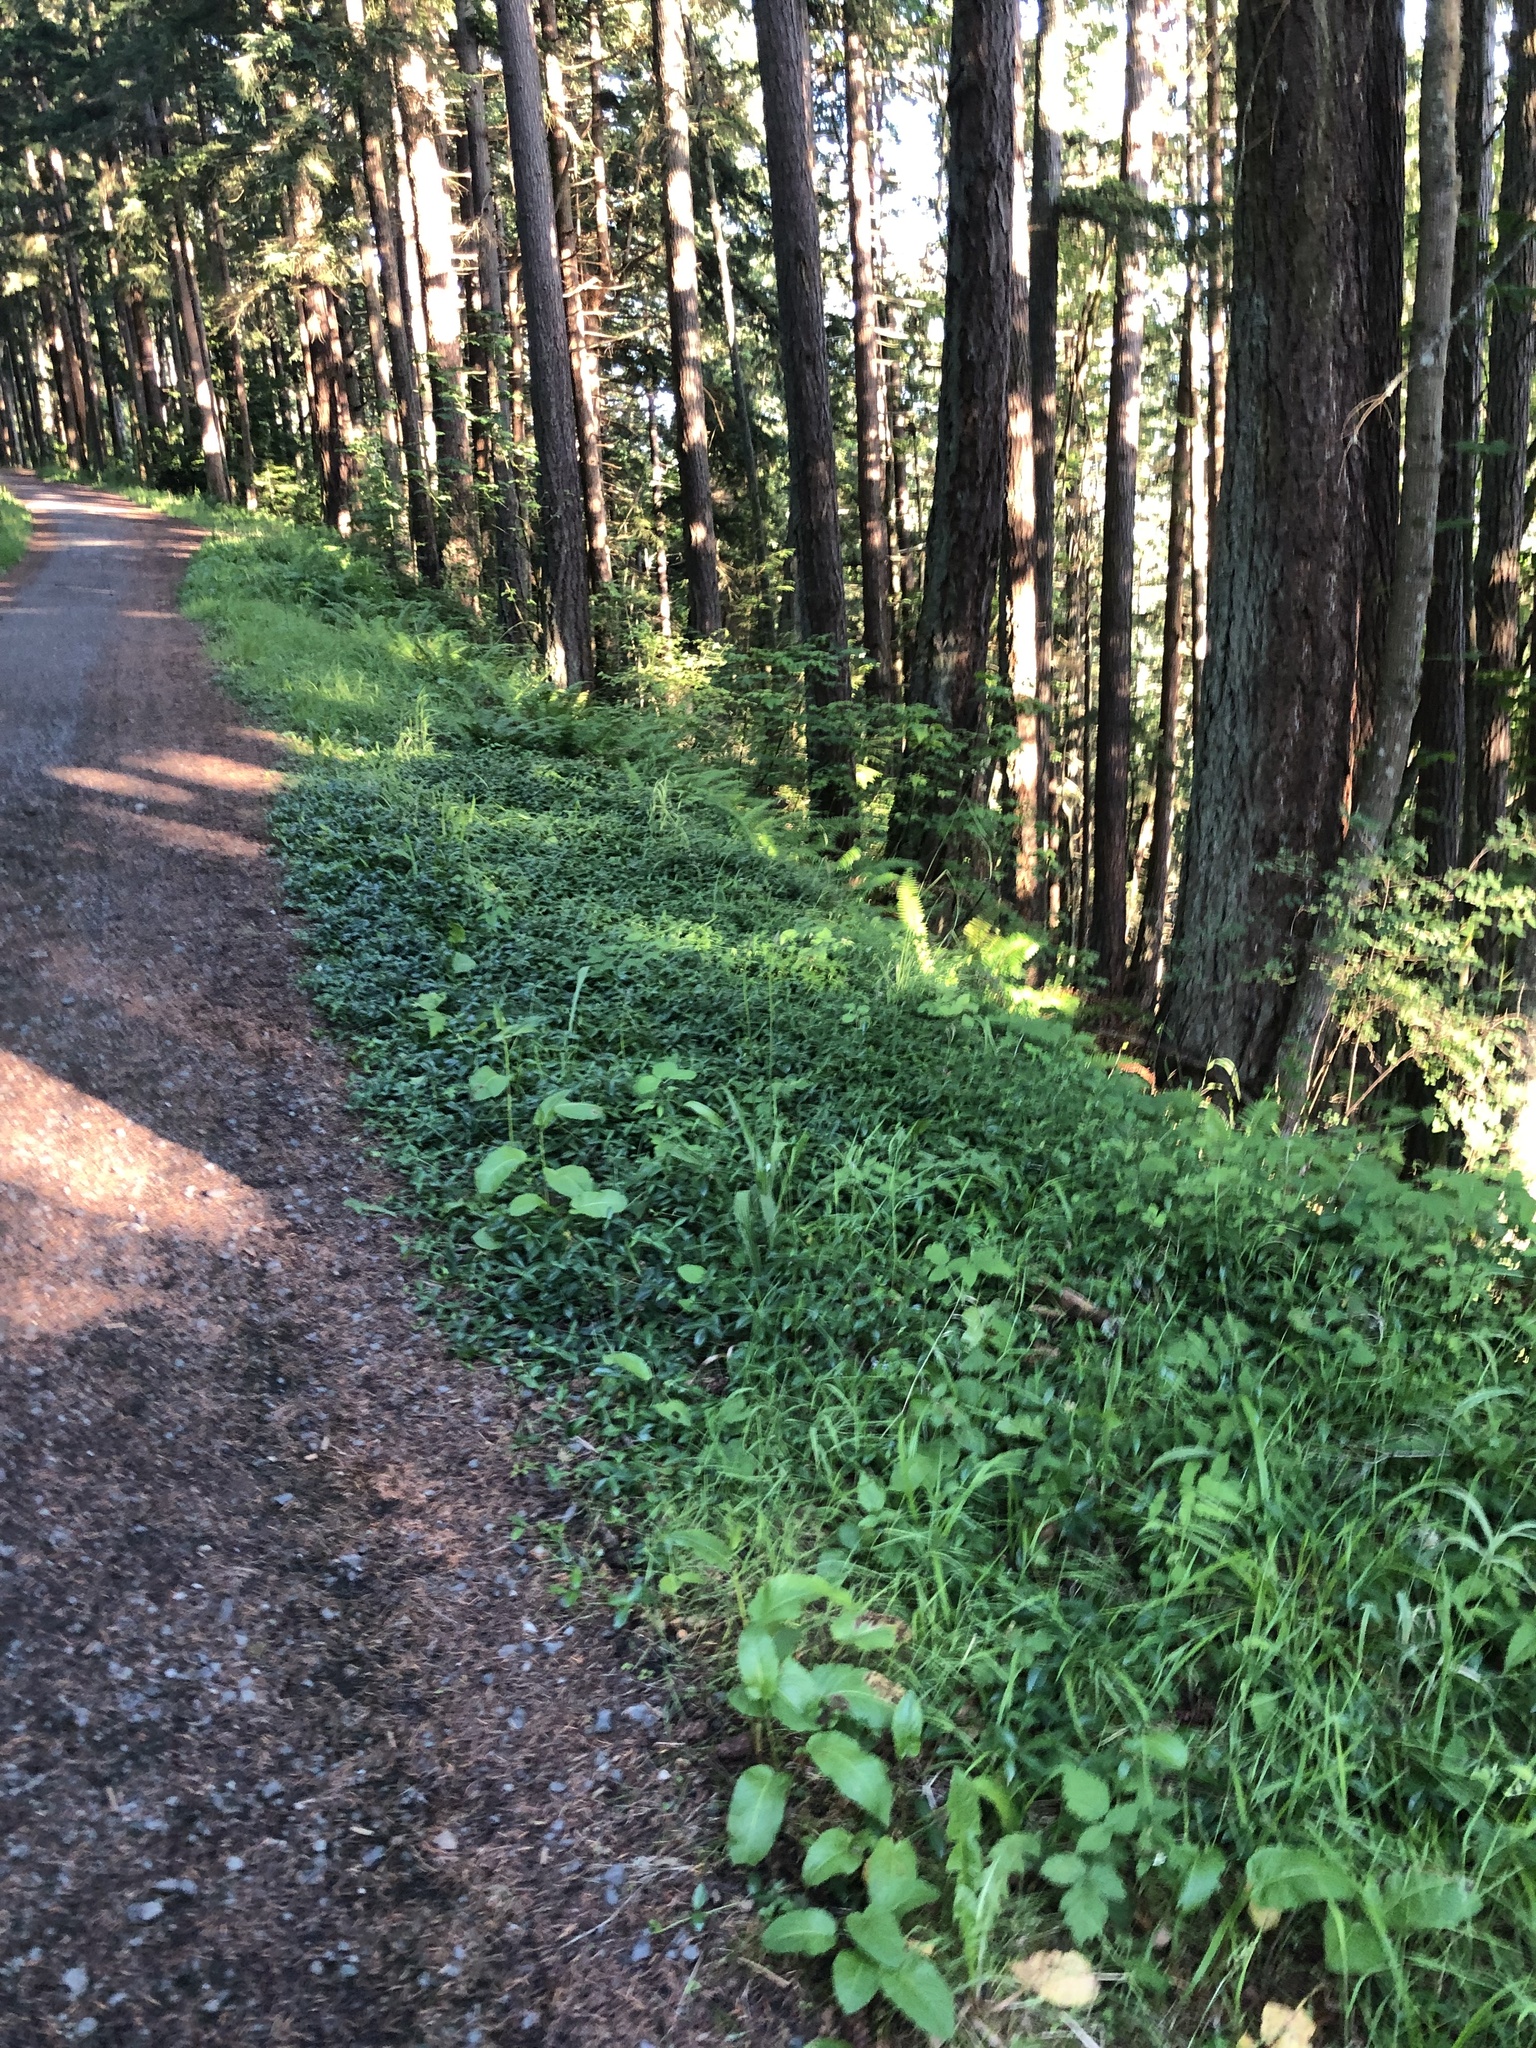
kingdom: Plantae
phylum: Tracheophyta
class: Magnoliopsida
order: Gentianales
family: Apocynaceae
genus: Vinca
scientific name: Vinca minor
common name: Lesser periwinkle
